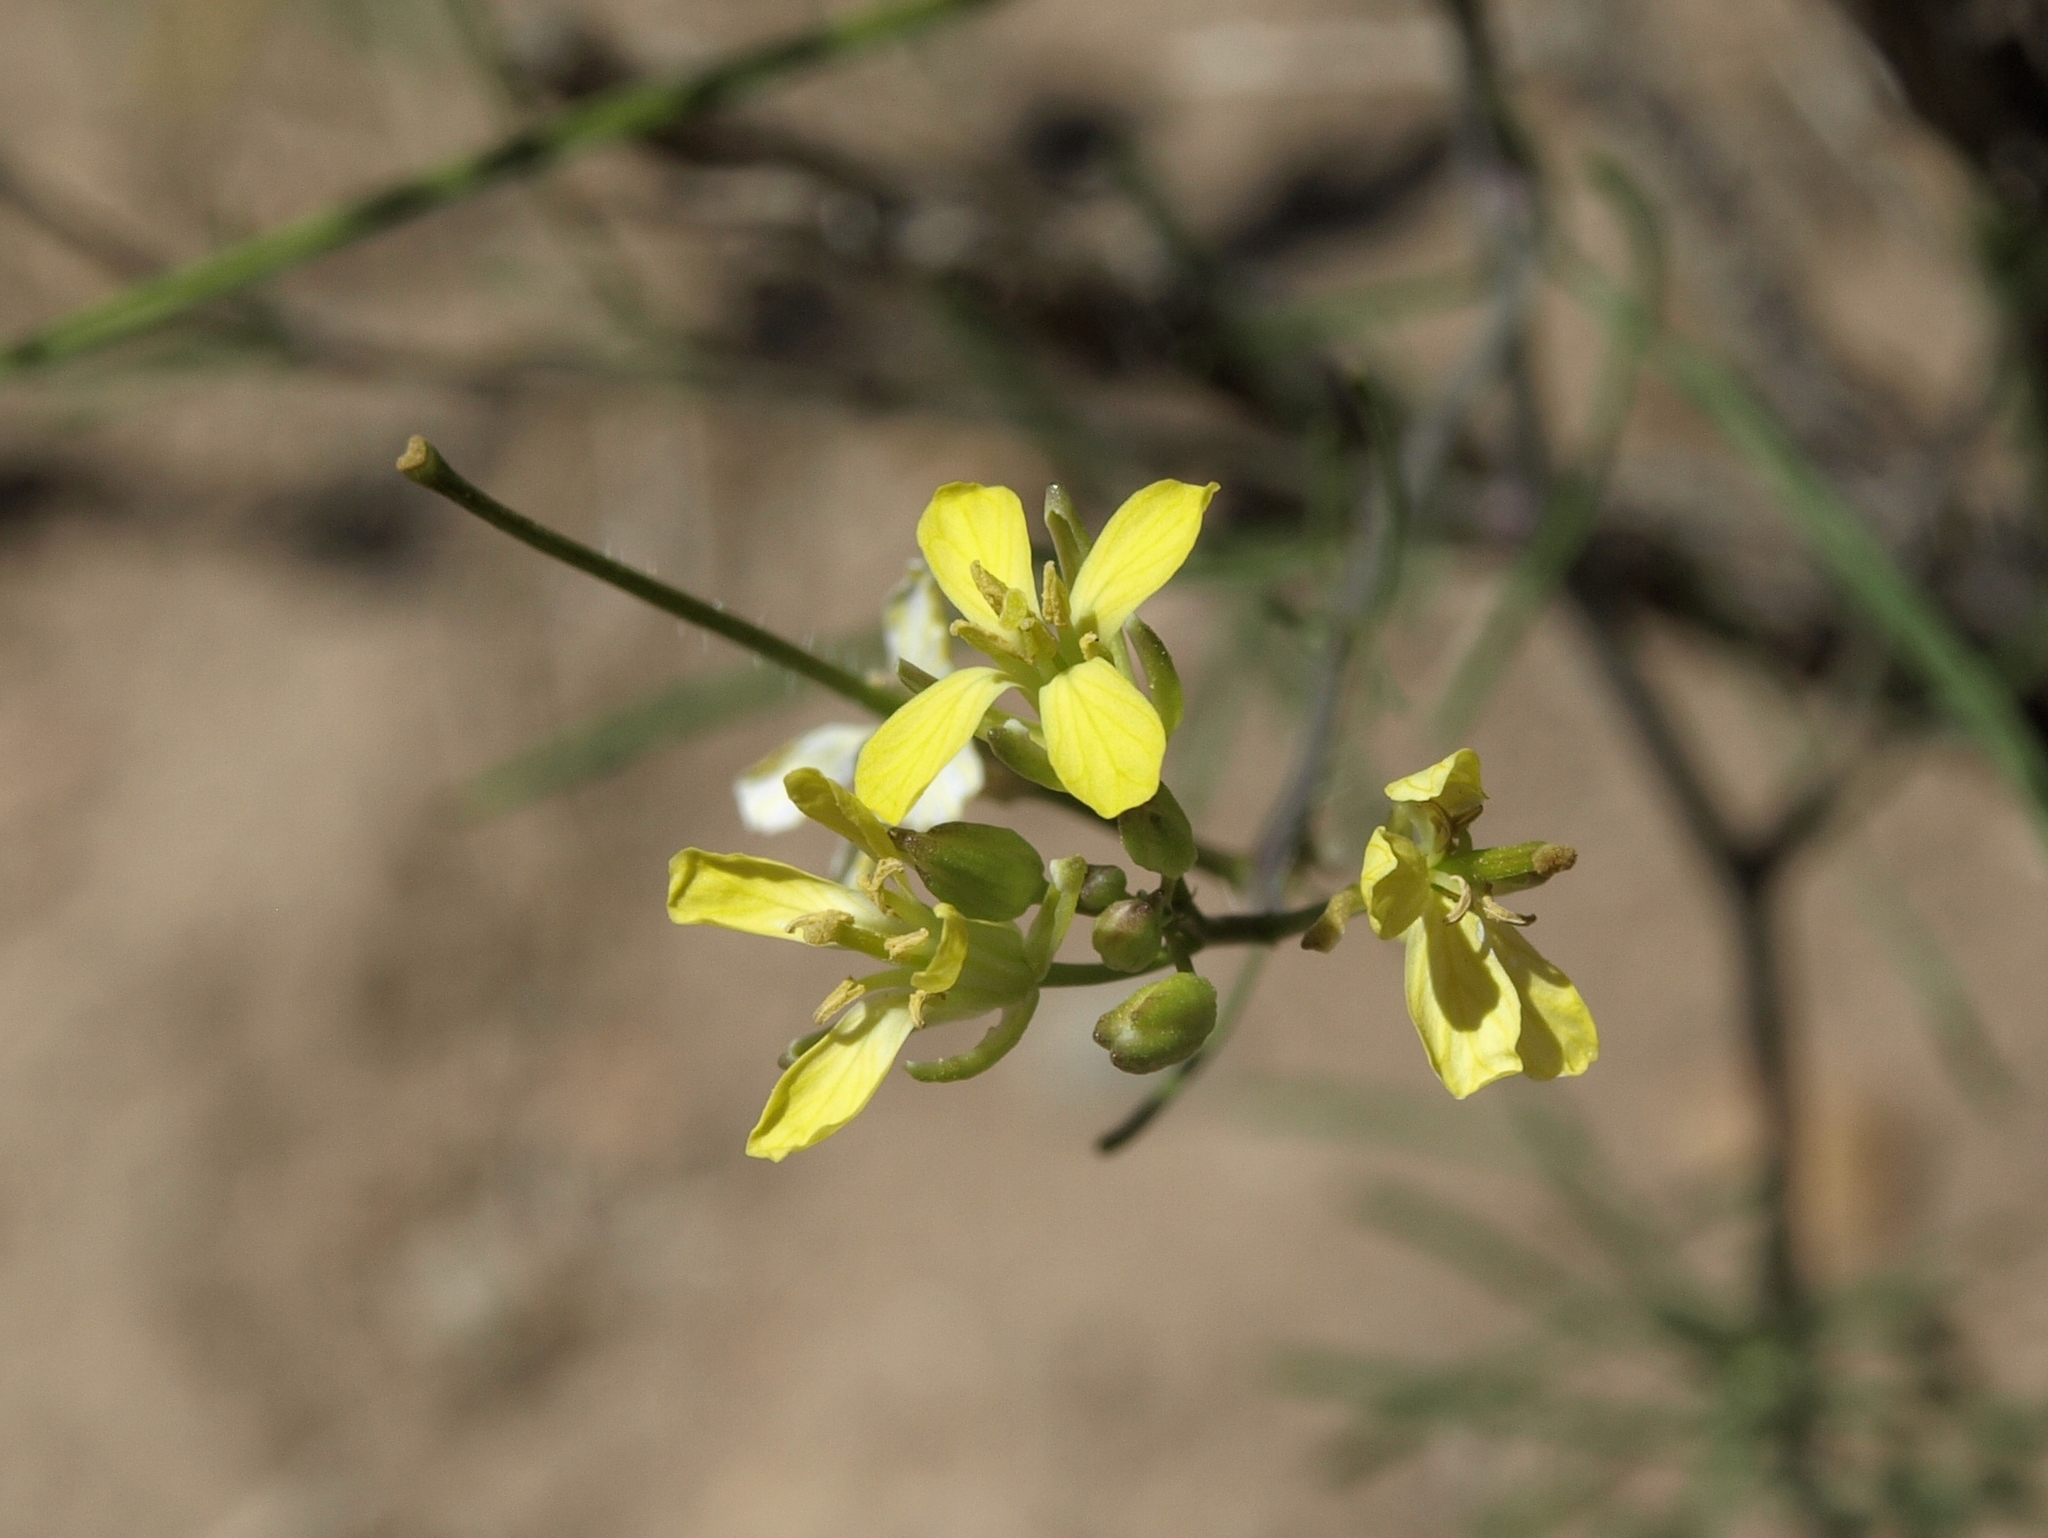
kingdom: Plantae
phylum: Tracheophyta
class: Magnoliopsida
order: Brassicales
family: Brassicaceae
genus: Sisymbrium
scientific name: Sisymbrium altissimum
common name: Tall rocket
